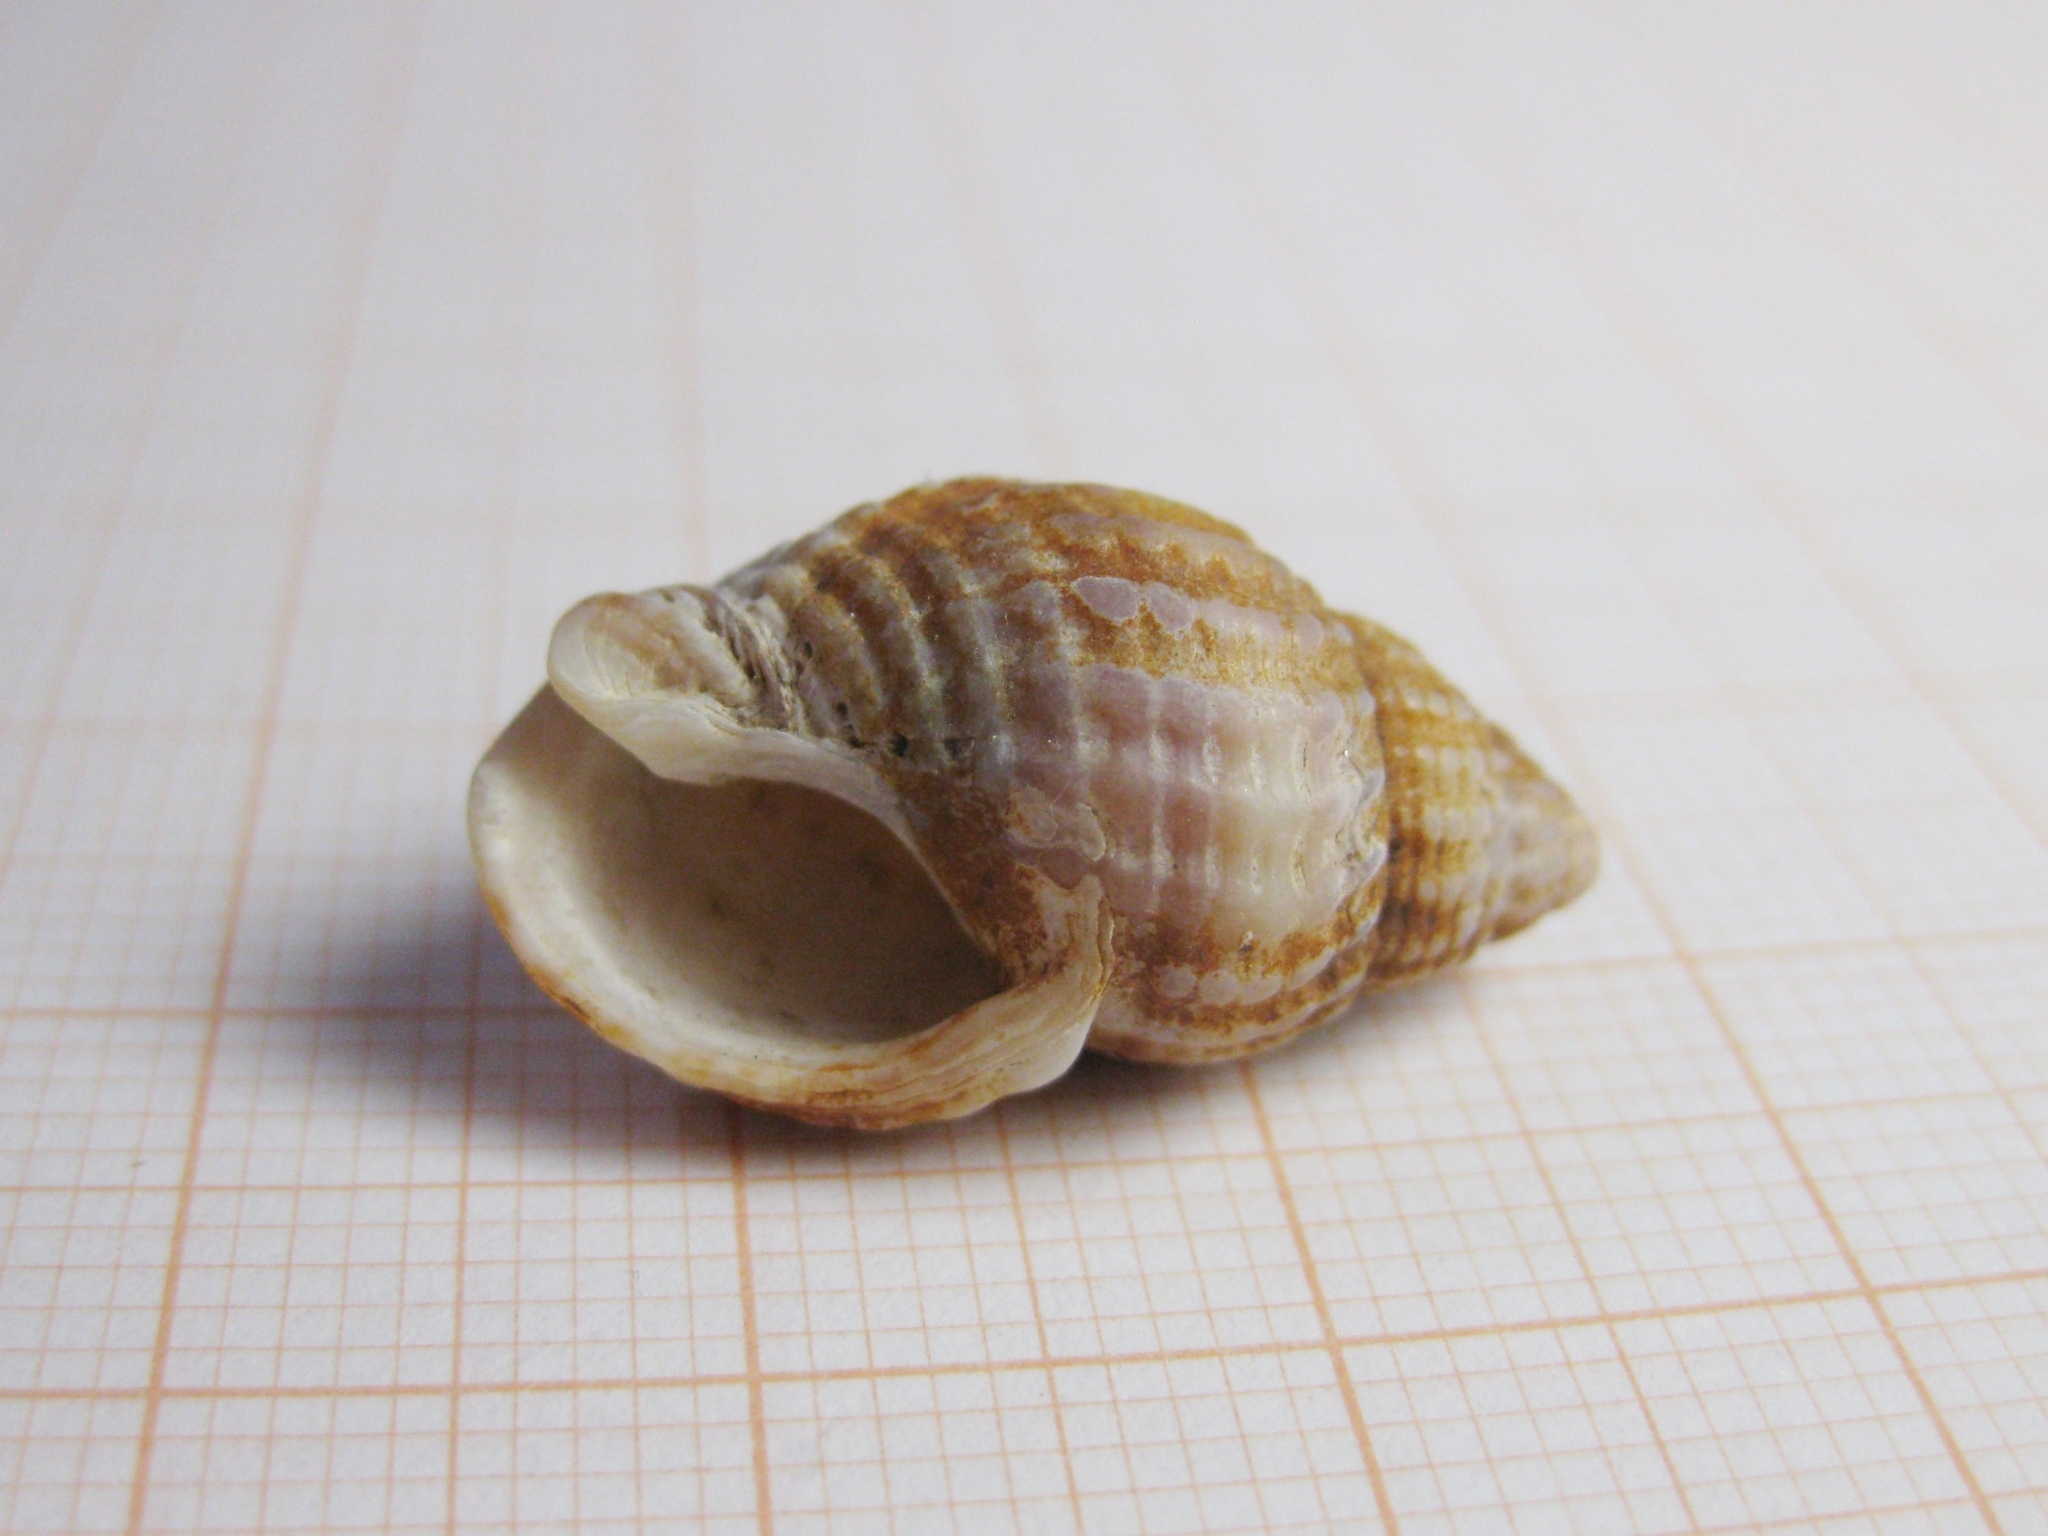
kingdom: Animalia
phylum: Mollusca
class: Gastropoda
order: Neogastropoda
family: Nassariidae
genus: Tritia
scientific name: Tritia nitida
